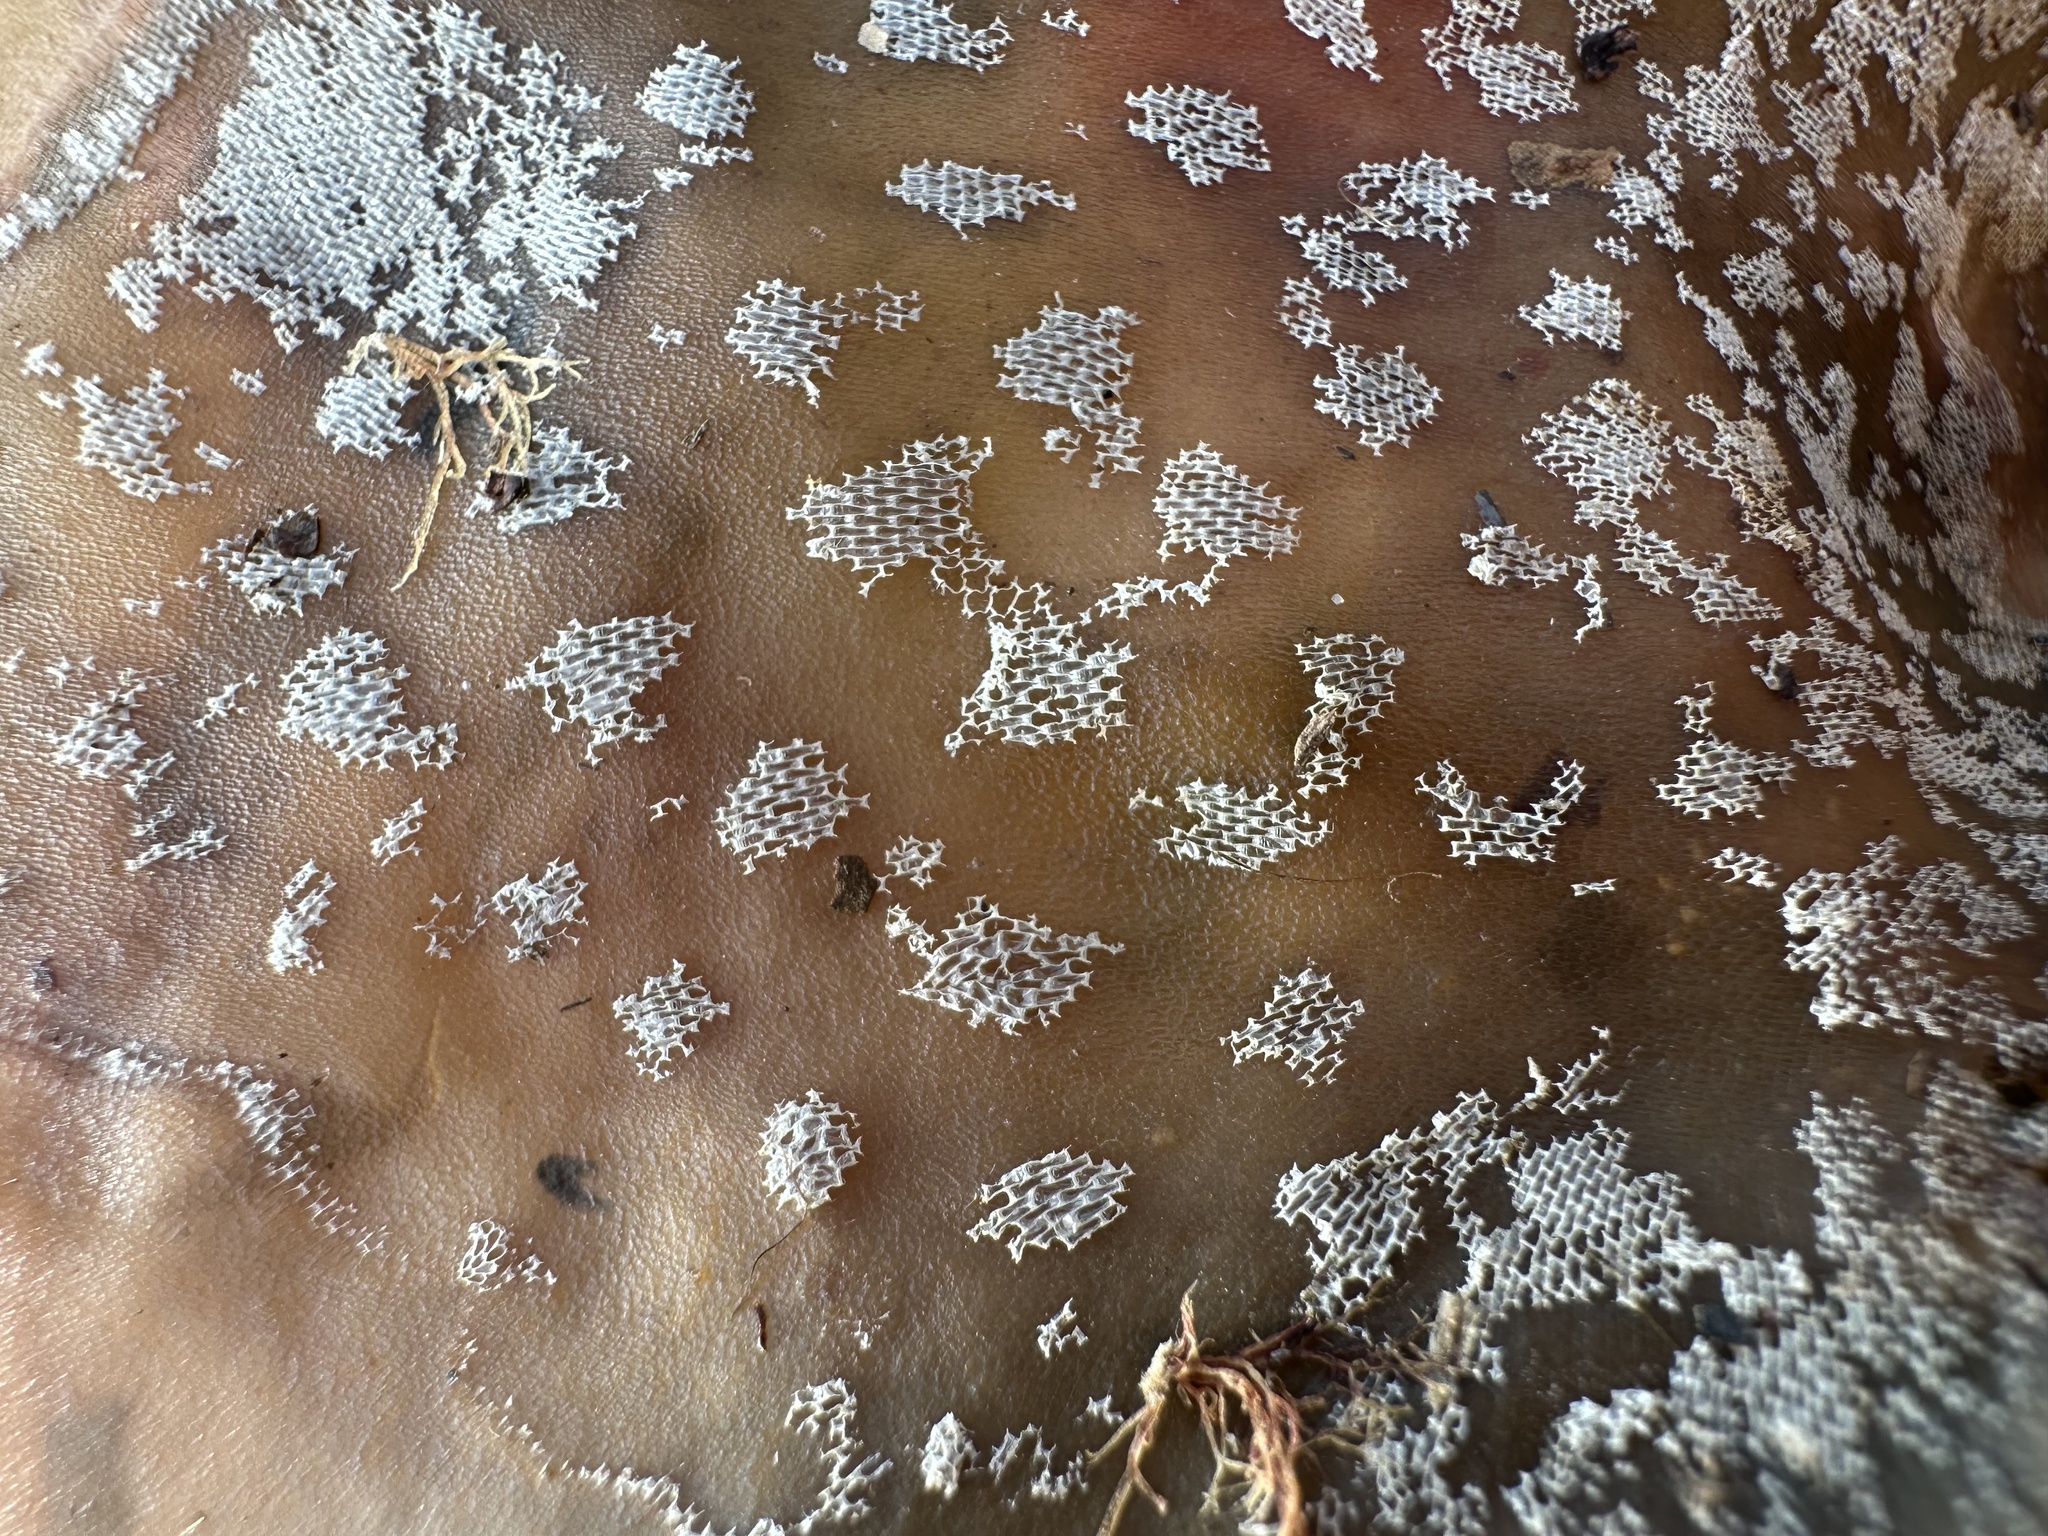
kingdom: Animalia
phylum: Bryozoa
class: Gymnolaemata
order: Cheilostomatida
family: Membraniporidae
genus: Membranipora
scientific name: Membranipora membranacea
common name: Sea mat
